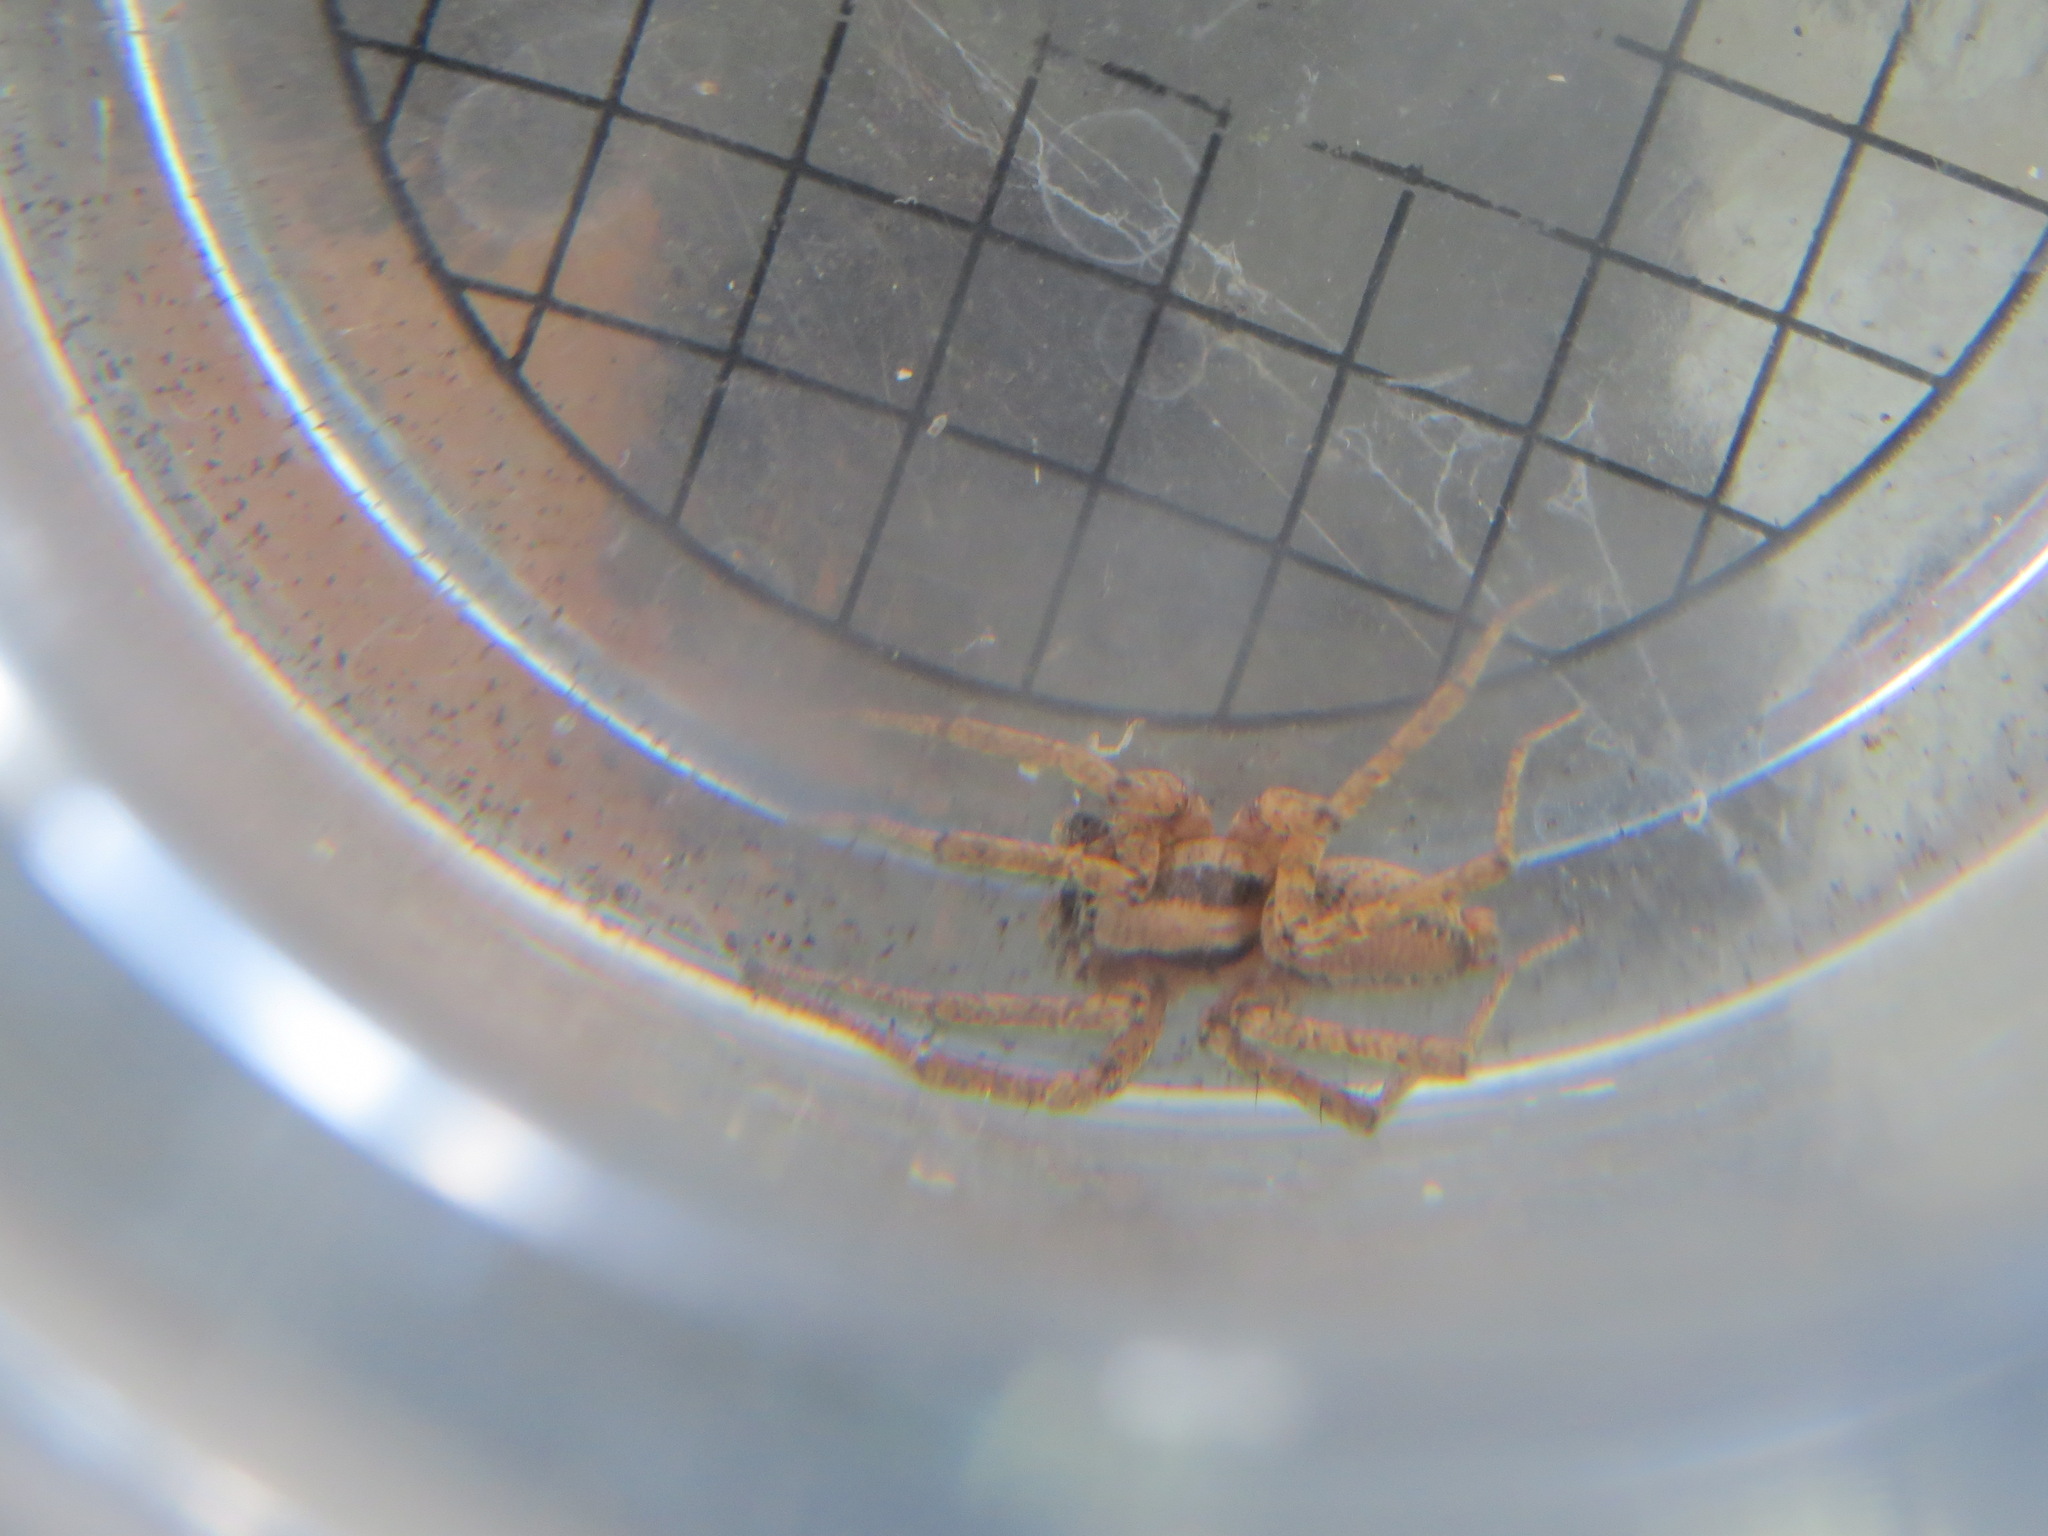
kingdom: Animalia
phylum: Arthropoda
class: Arachnida
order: Araneae
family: Agelenidae
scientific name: Agelenidae
